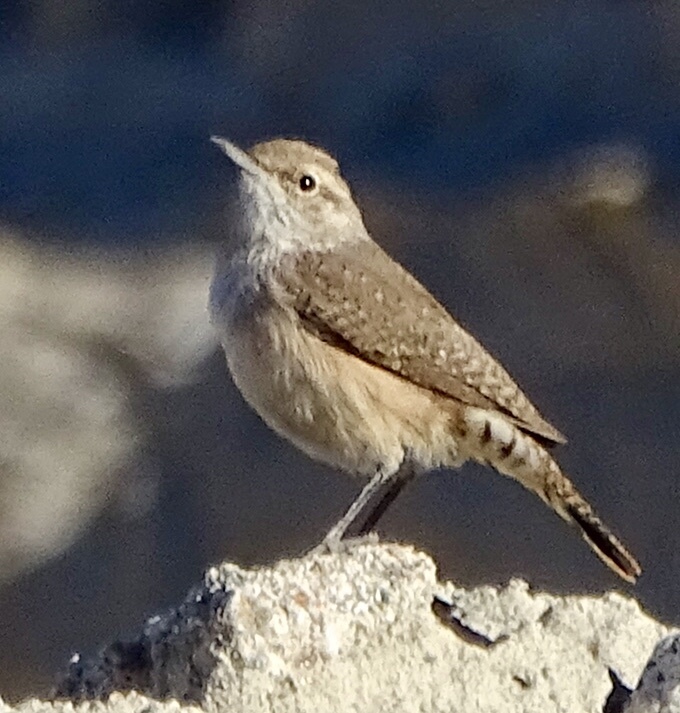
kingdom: Animalia
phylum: Chordata
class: Aves
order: Passeriformes
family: Troglodytidae
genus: Salpinctes
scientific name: Salpinctes obsoletus
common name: Rock wren
